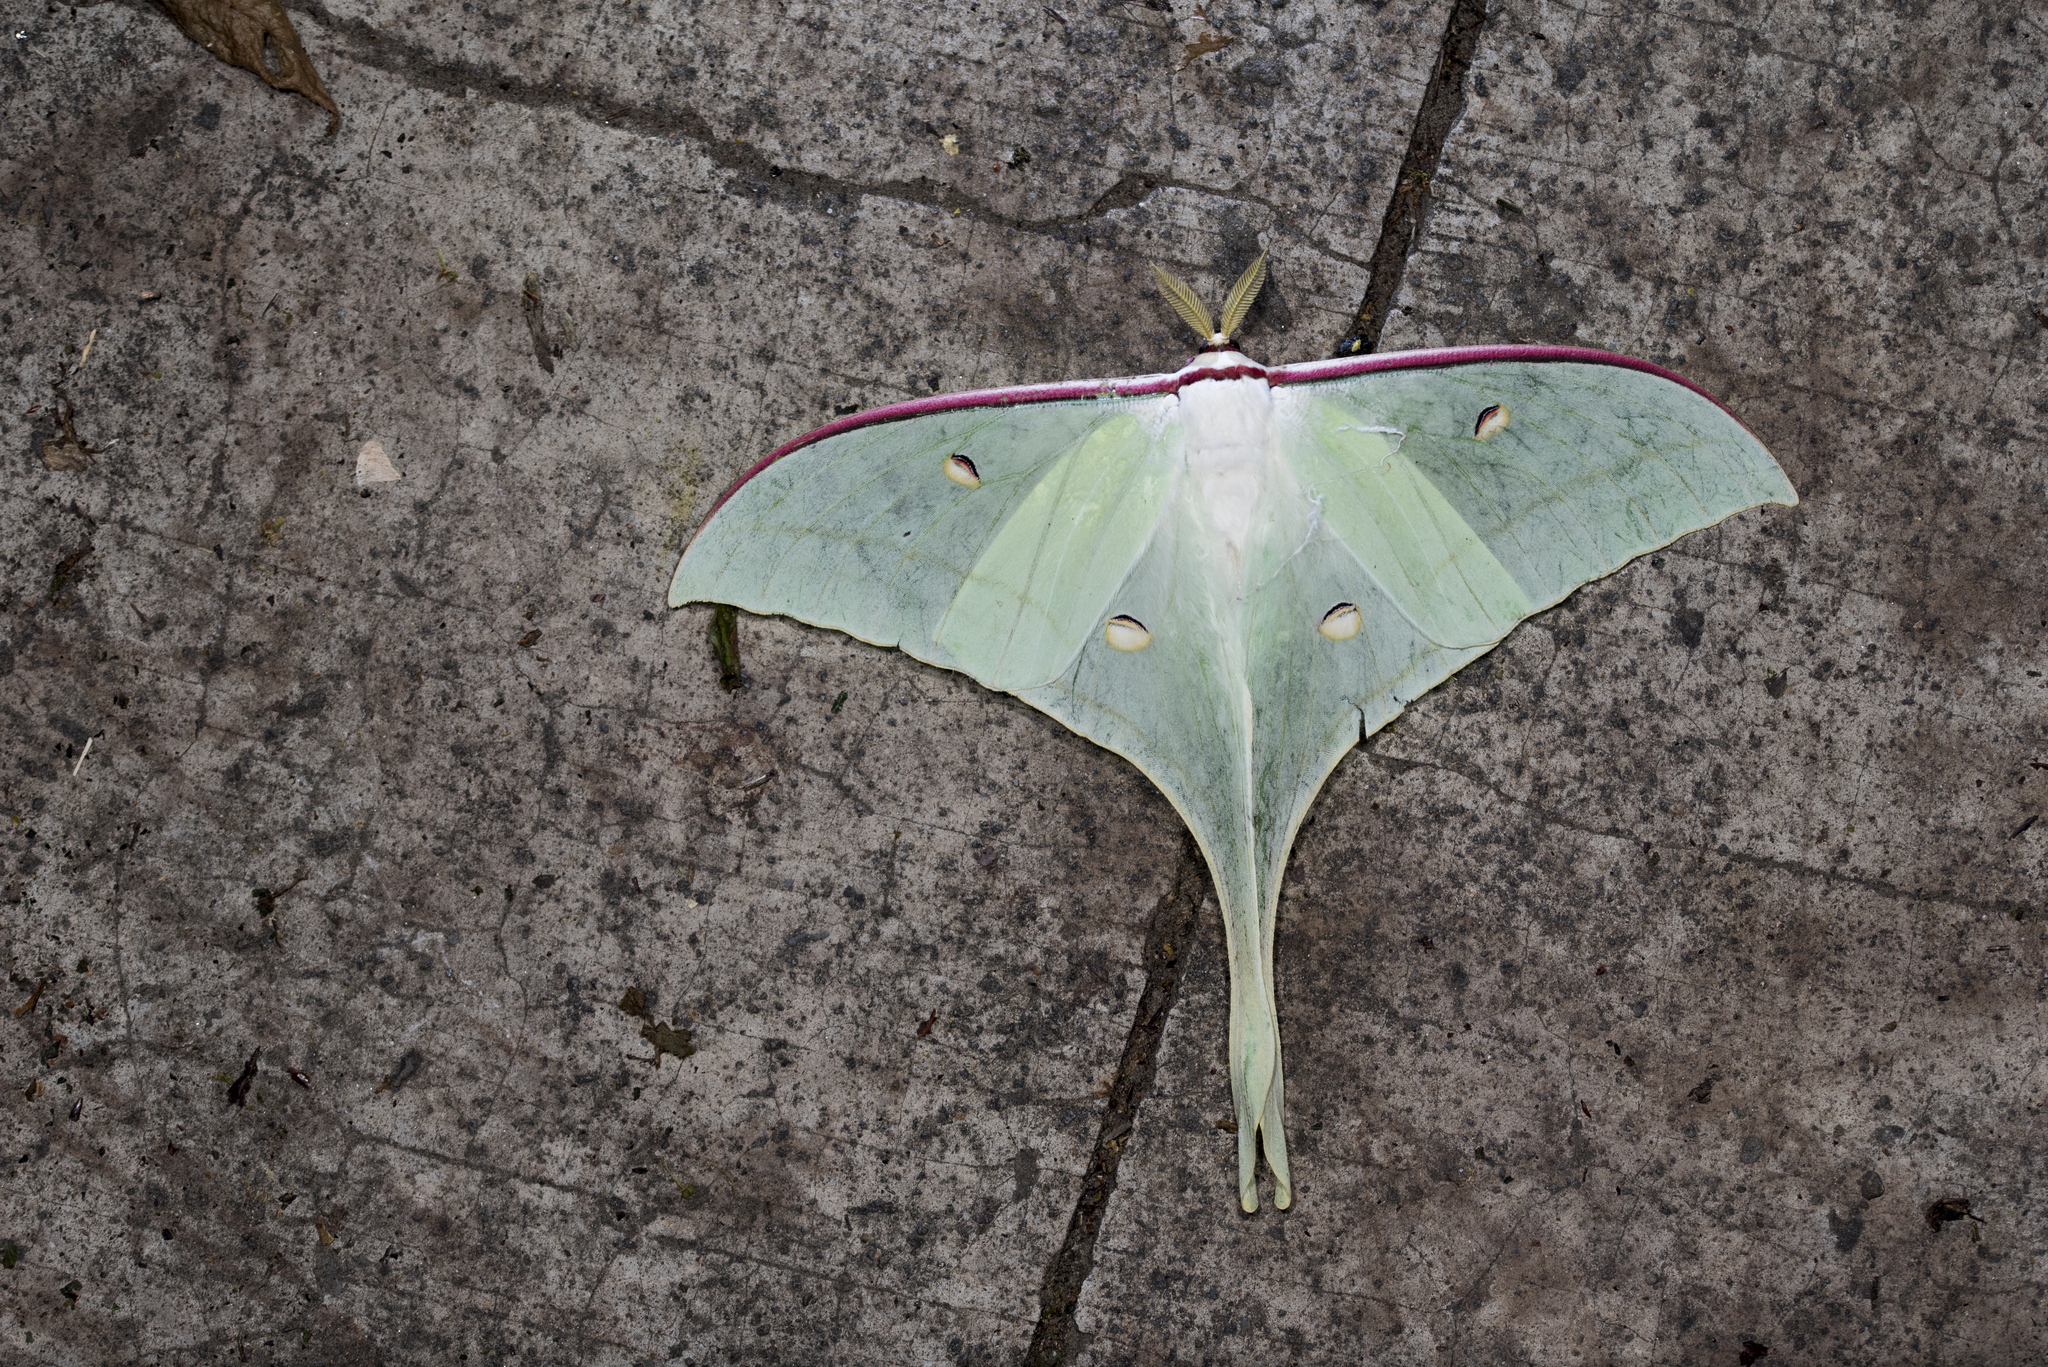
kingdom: Animalia
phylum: Arthropoda
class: Insecta
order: Lepidoptera
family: Saturniidae
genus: Actias
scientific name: Actias ningpoana
